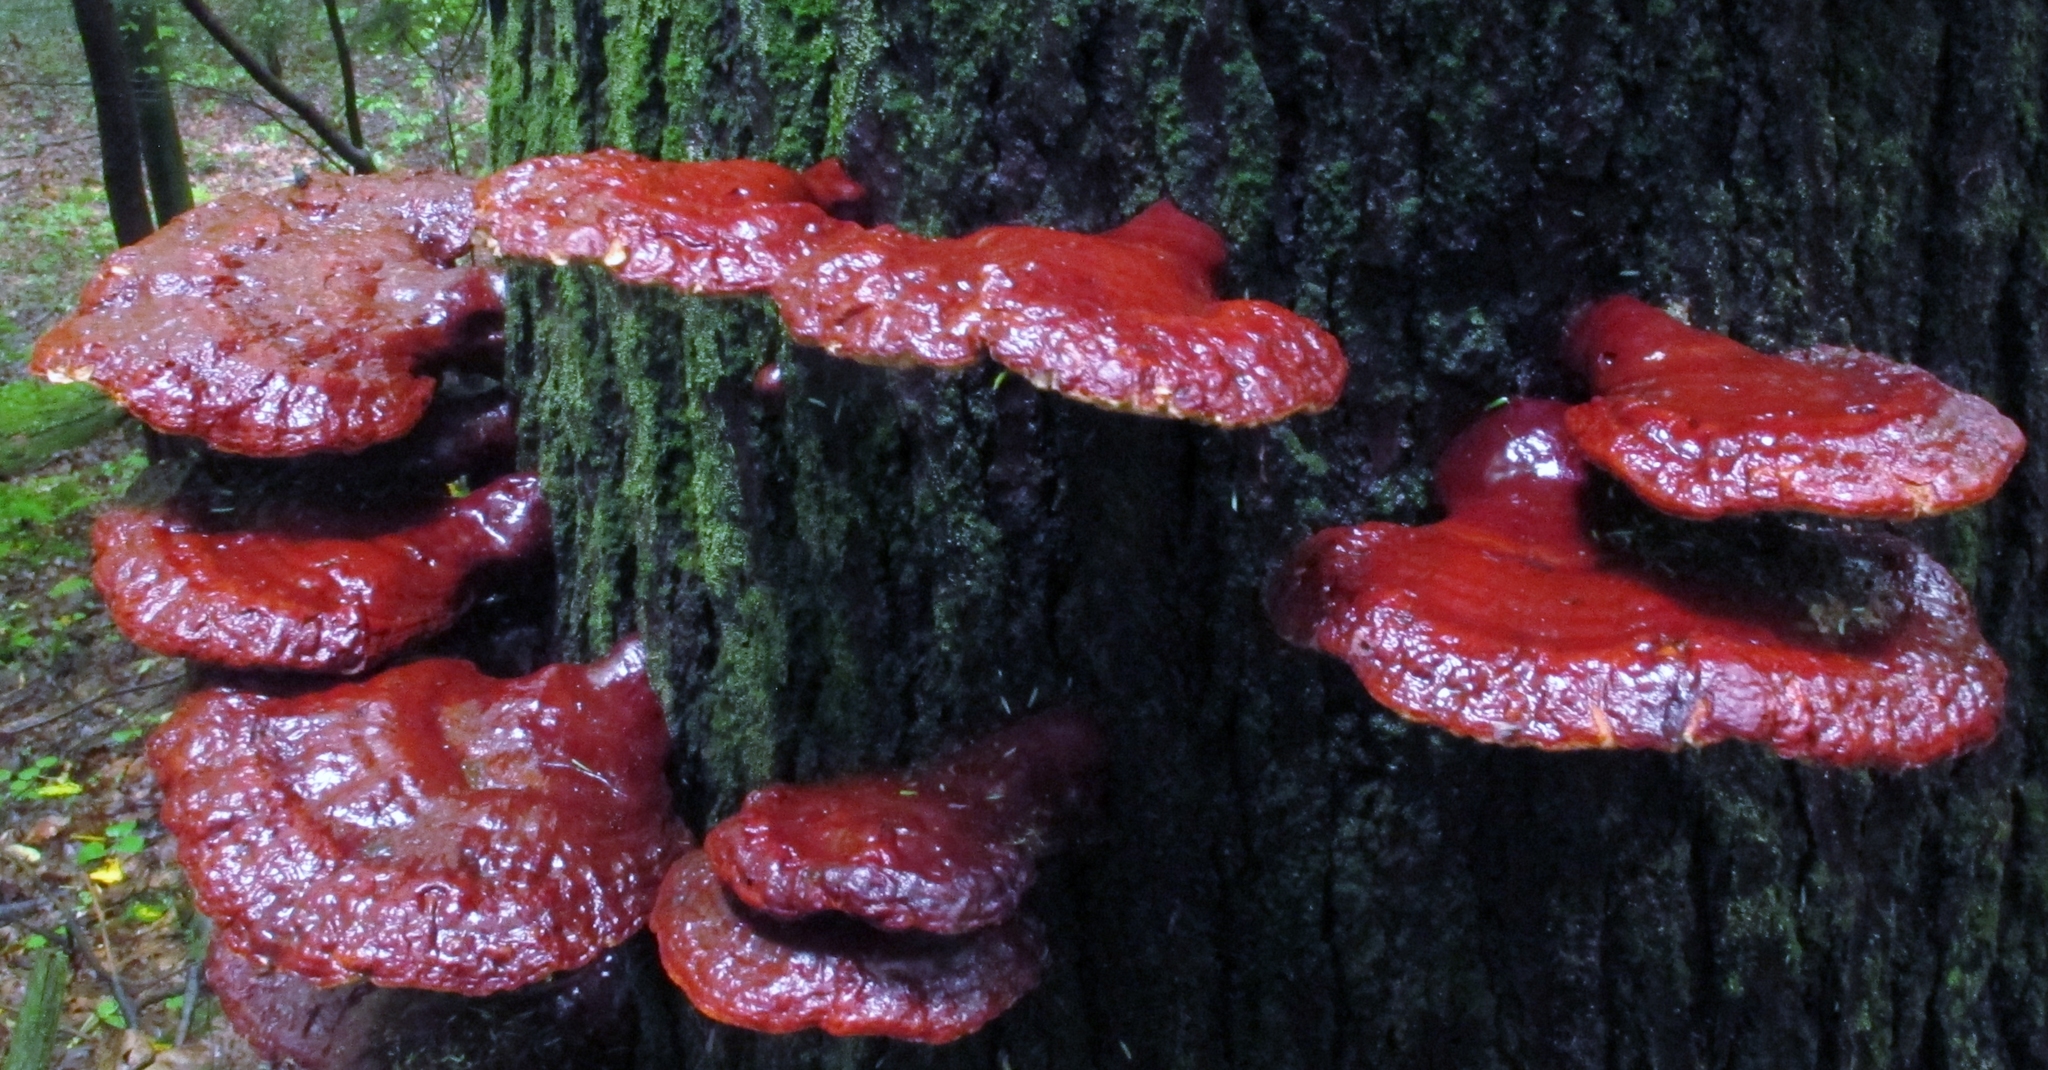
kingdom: Fungi
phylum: Basidiomycota
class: Agaricomycetes
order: Polyporales
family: Polyporaceae
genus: Ganoderma
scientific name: Ganoderma tsugae
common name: Hemlock varnish shelf
